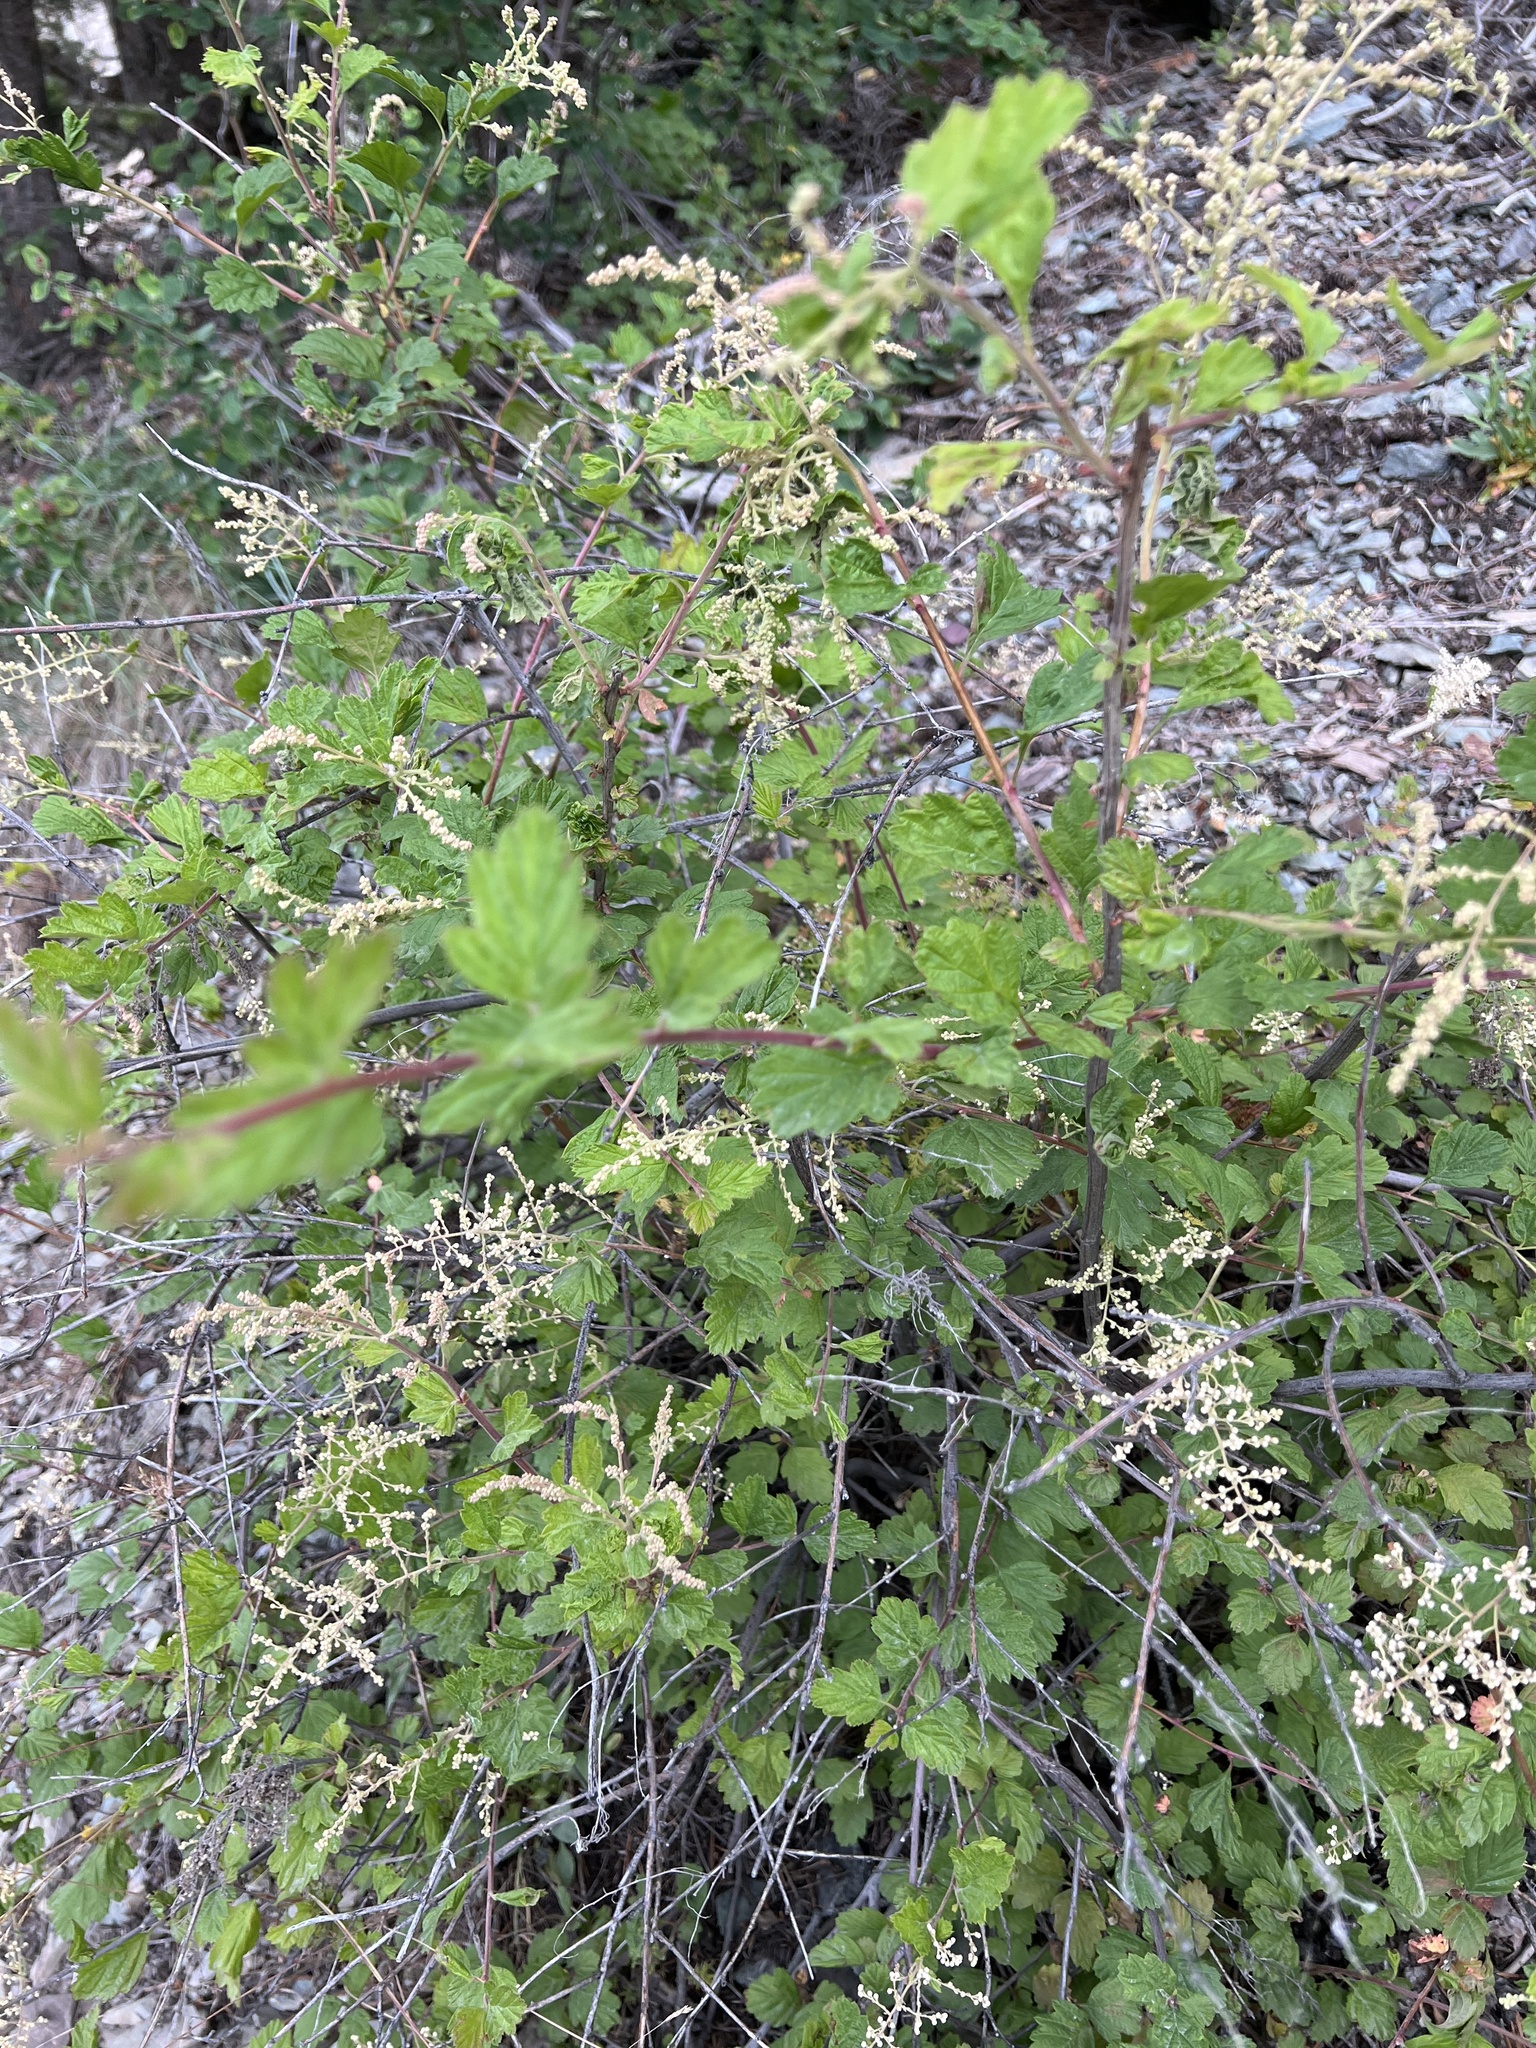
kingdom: Plantae
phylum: Tracheophyta
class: Magnoliopsida
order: Rosales
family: Rosaceae
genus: Holodiscus
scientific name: Holodiscus discolor
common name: Oceanspray
